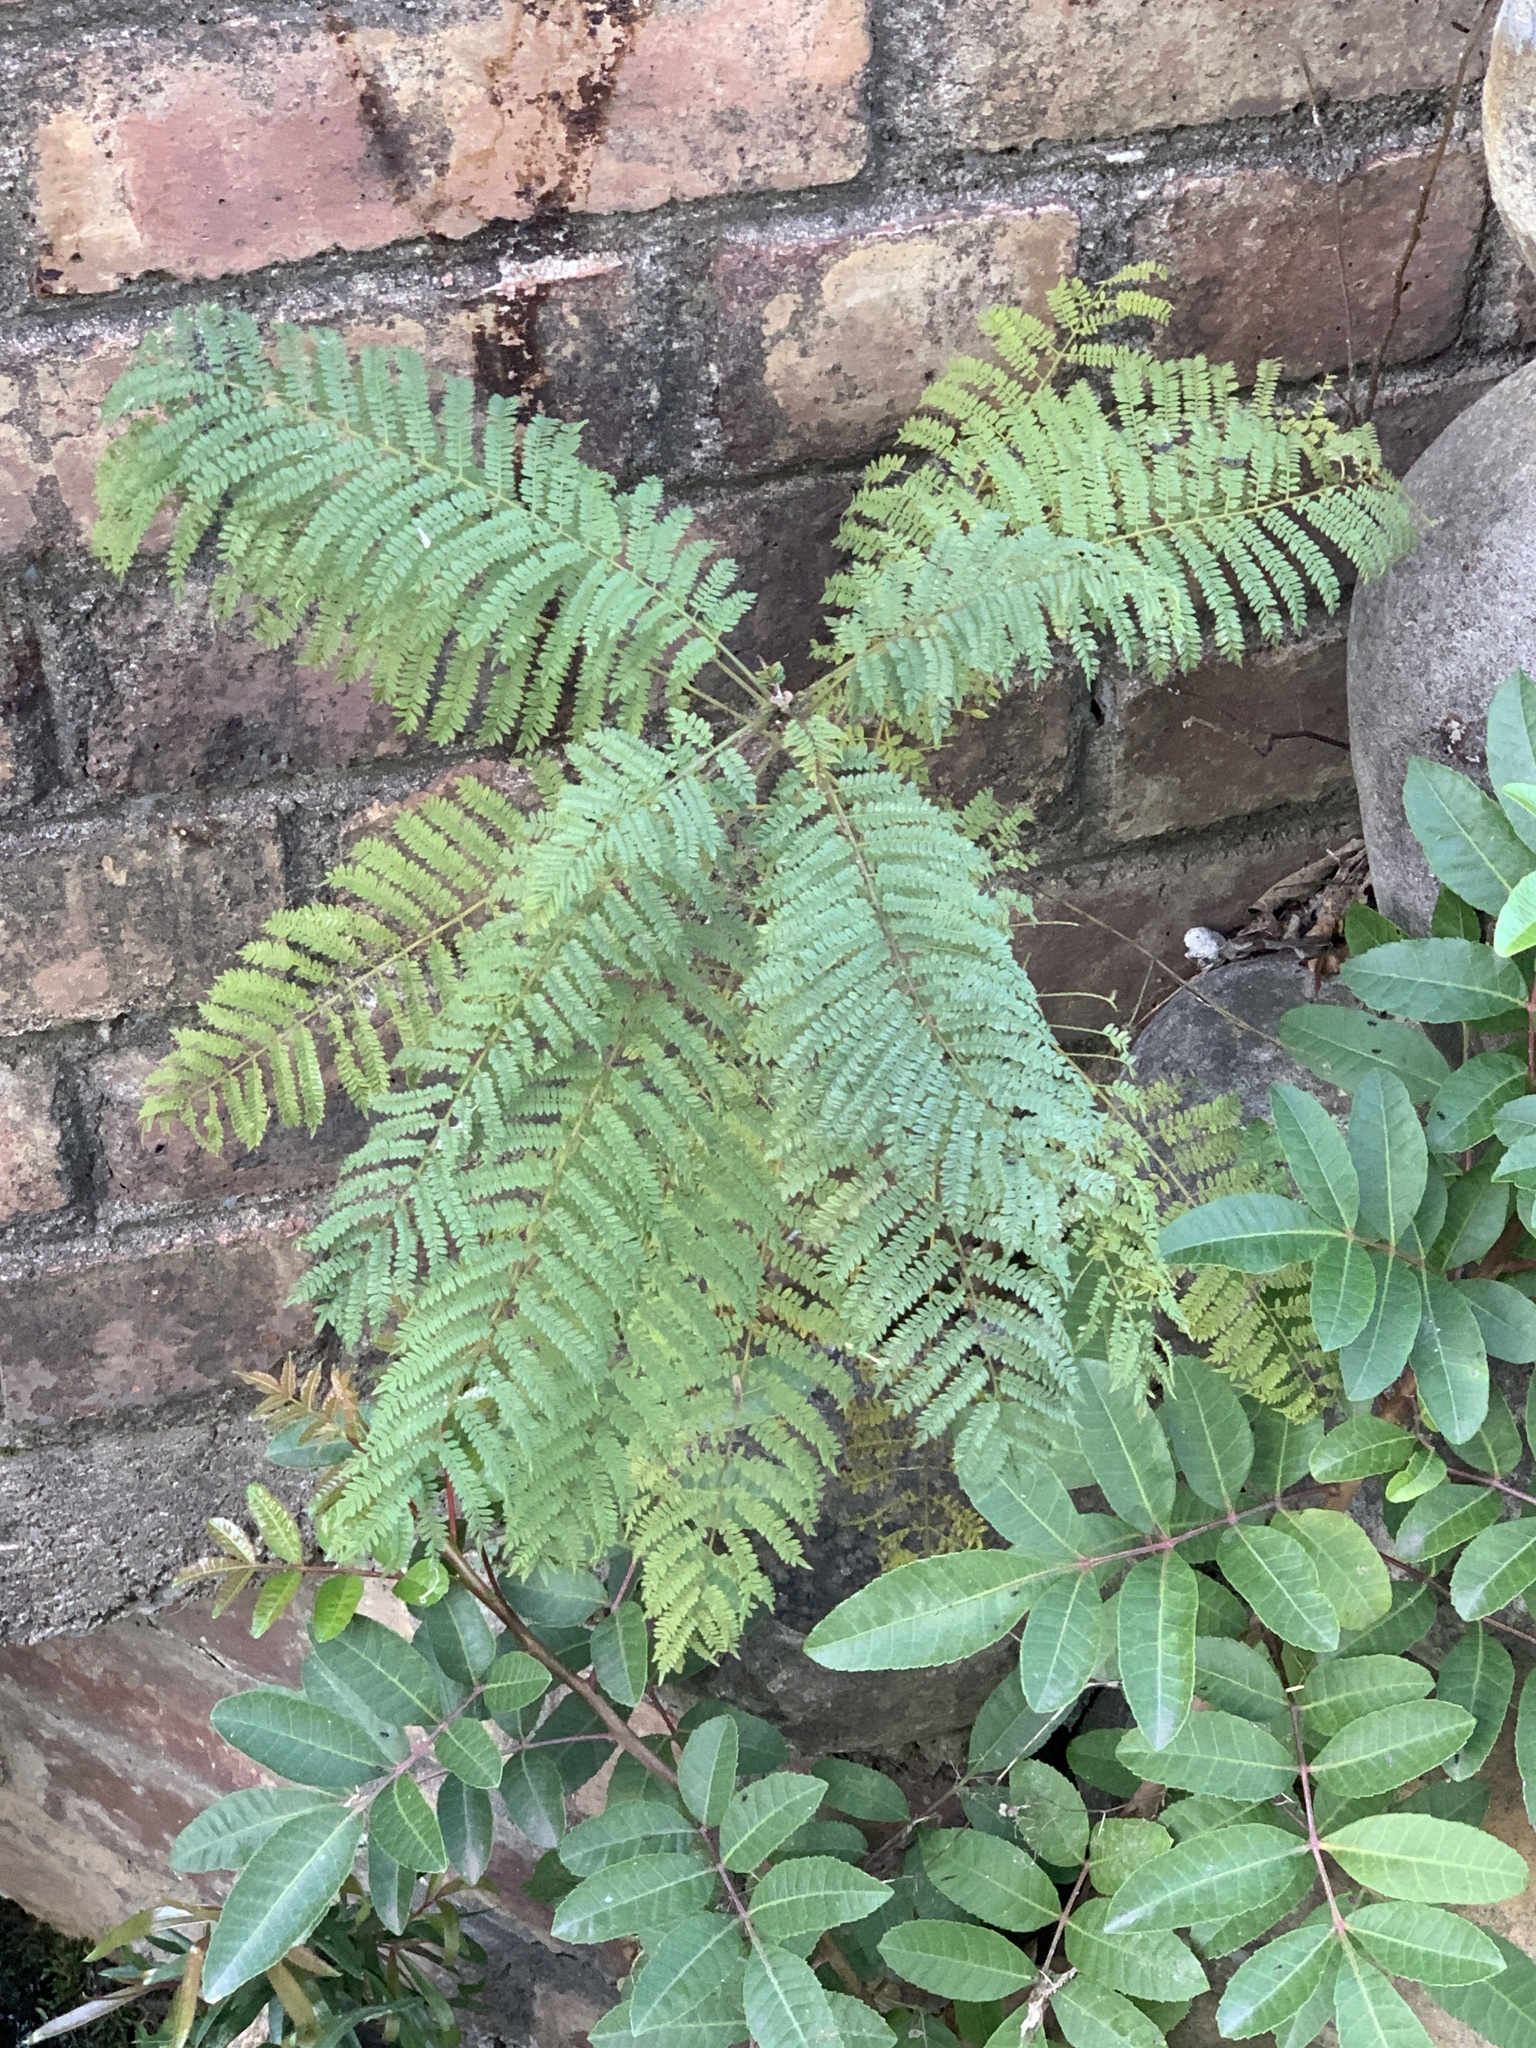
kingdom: Plantae
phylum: Tracheophyta
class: Magnoliopsida
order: Lamiales
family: Bignoniaceae
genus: Jacaranda
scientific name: Jacaranda mimosifolia
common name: Black poui
